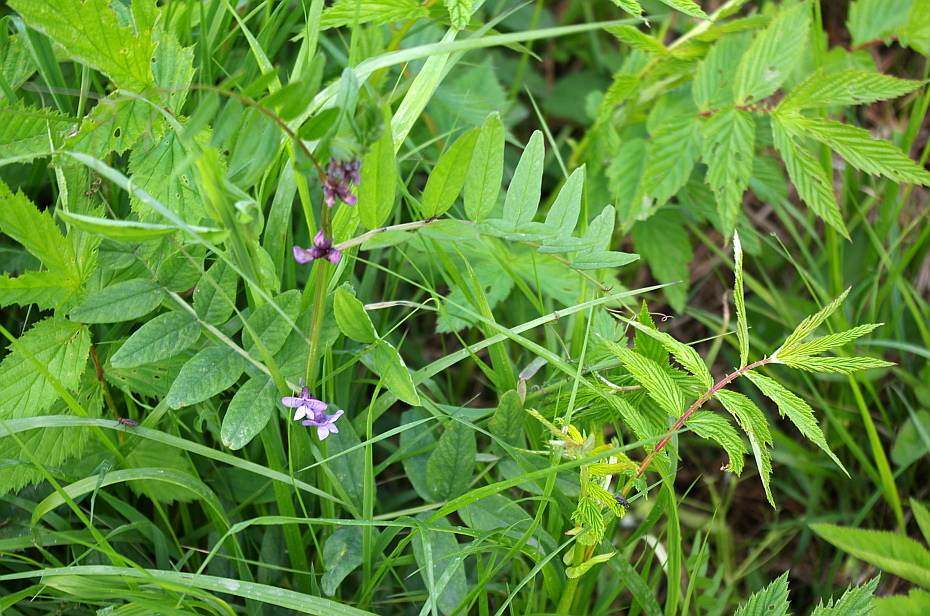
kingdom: Plantae
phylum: Tracheophyta
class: Magnoliopsida
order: Fabales
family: Fabaceae
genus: Vicia
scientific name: Vicia sepium
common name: Bush vetch
